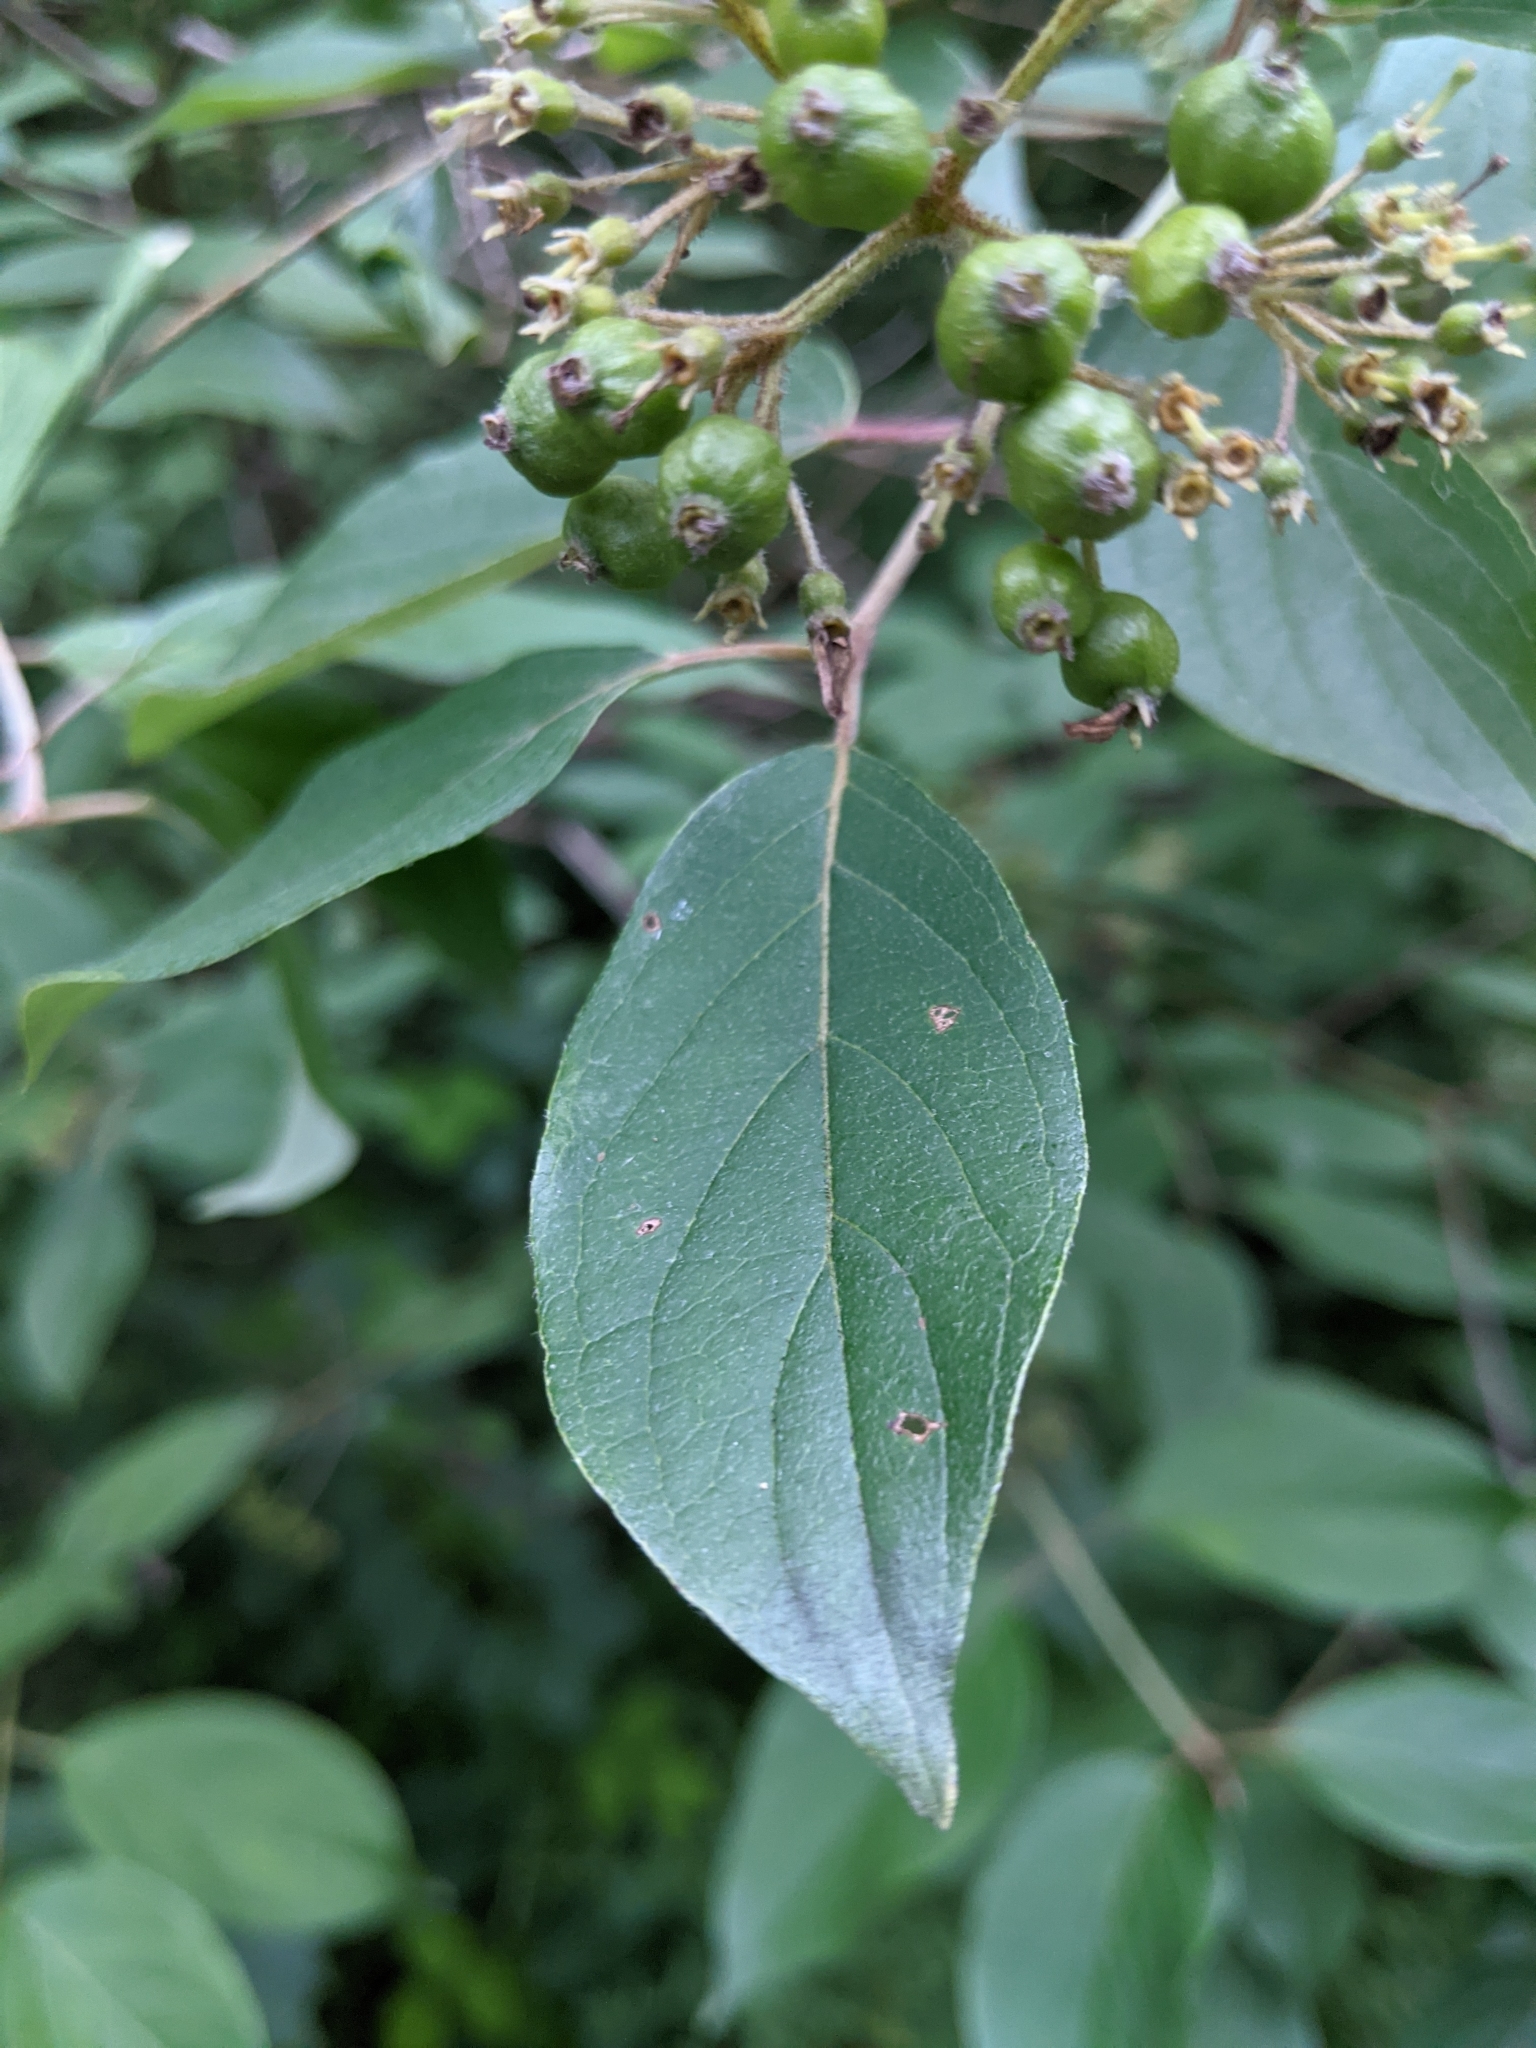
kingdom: Plantae
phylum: Tracheophyta
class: Magnoliopsida
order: Cornales
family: Cornaceae
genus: Cornus
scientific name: Cornus obliqua
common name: Pale dogwood
